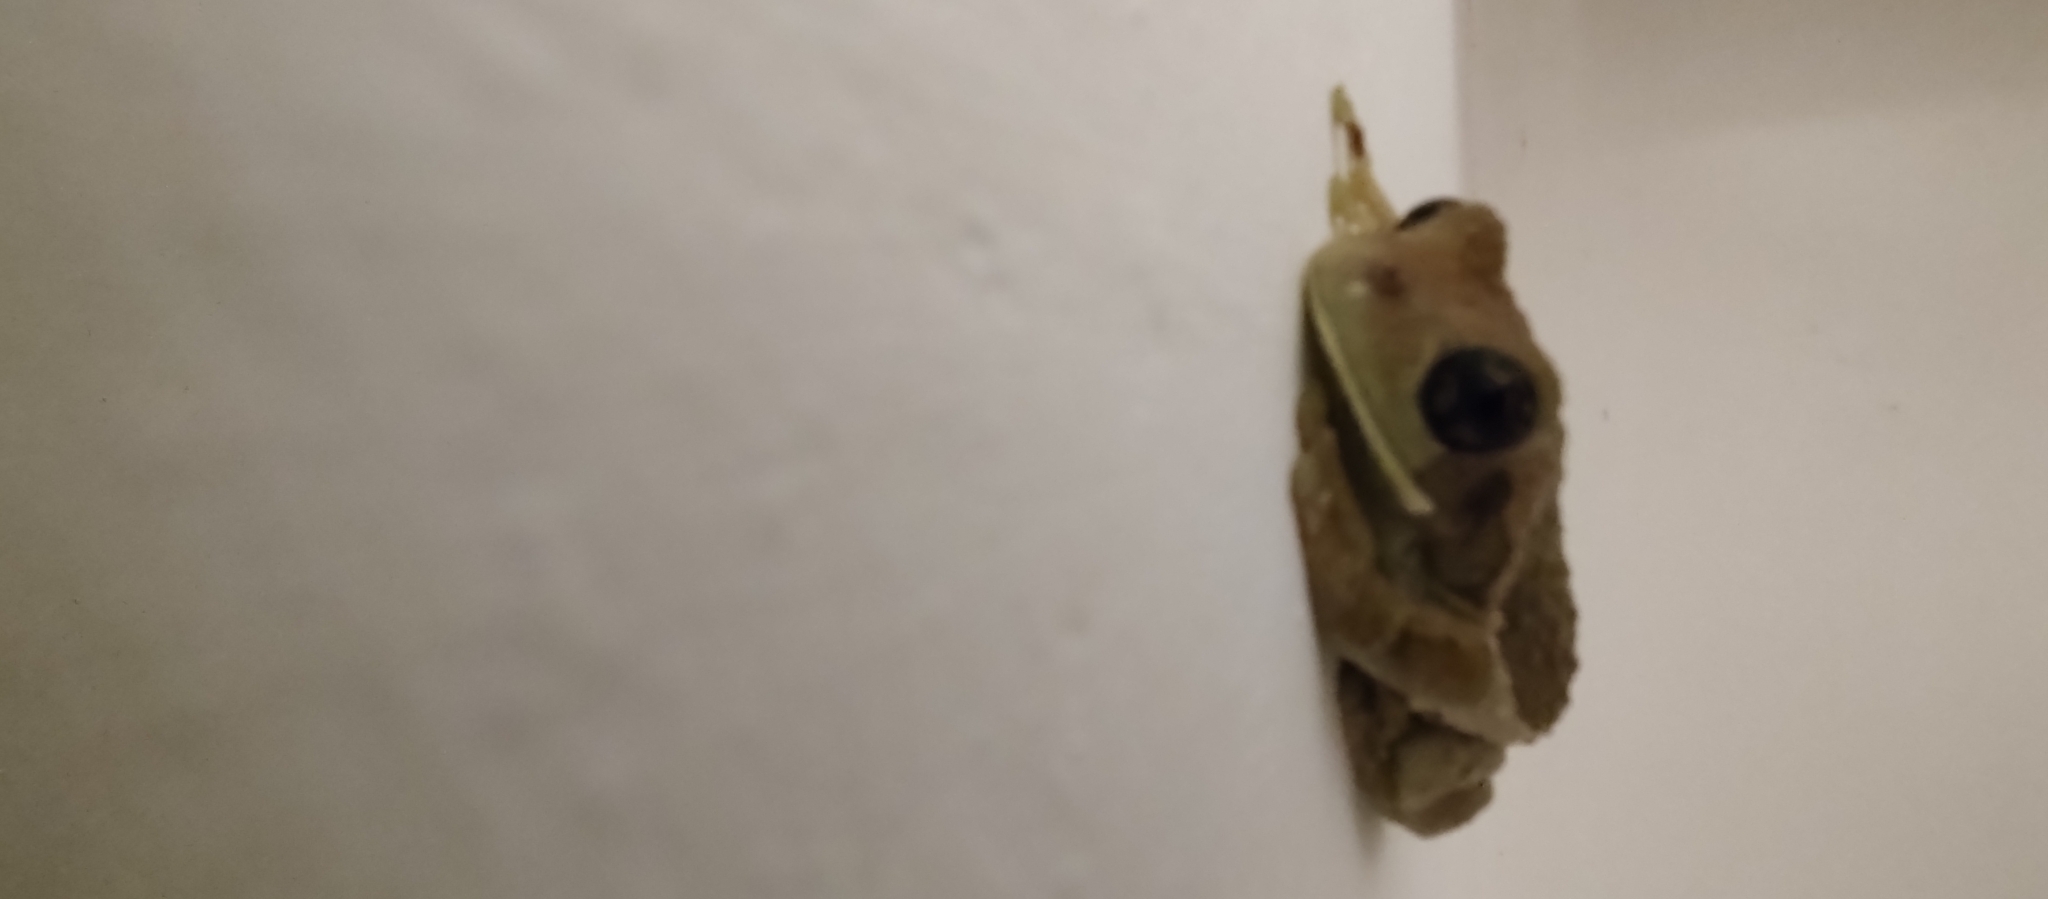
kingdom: Animalia
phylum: Chordata
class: Amphibia
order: Anura
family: Hylidae
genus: Trachycephalus
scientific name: Trachycephalus vermiculatus
